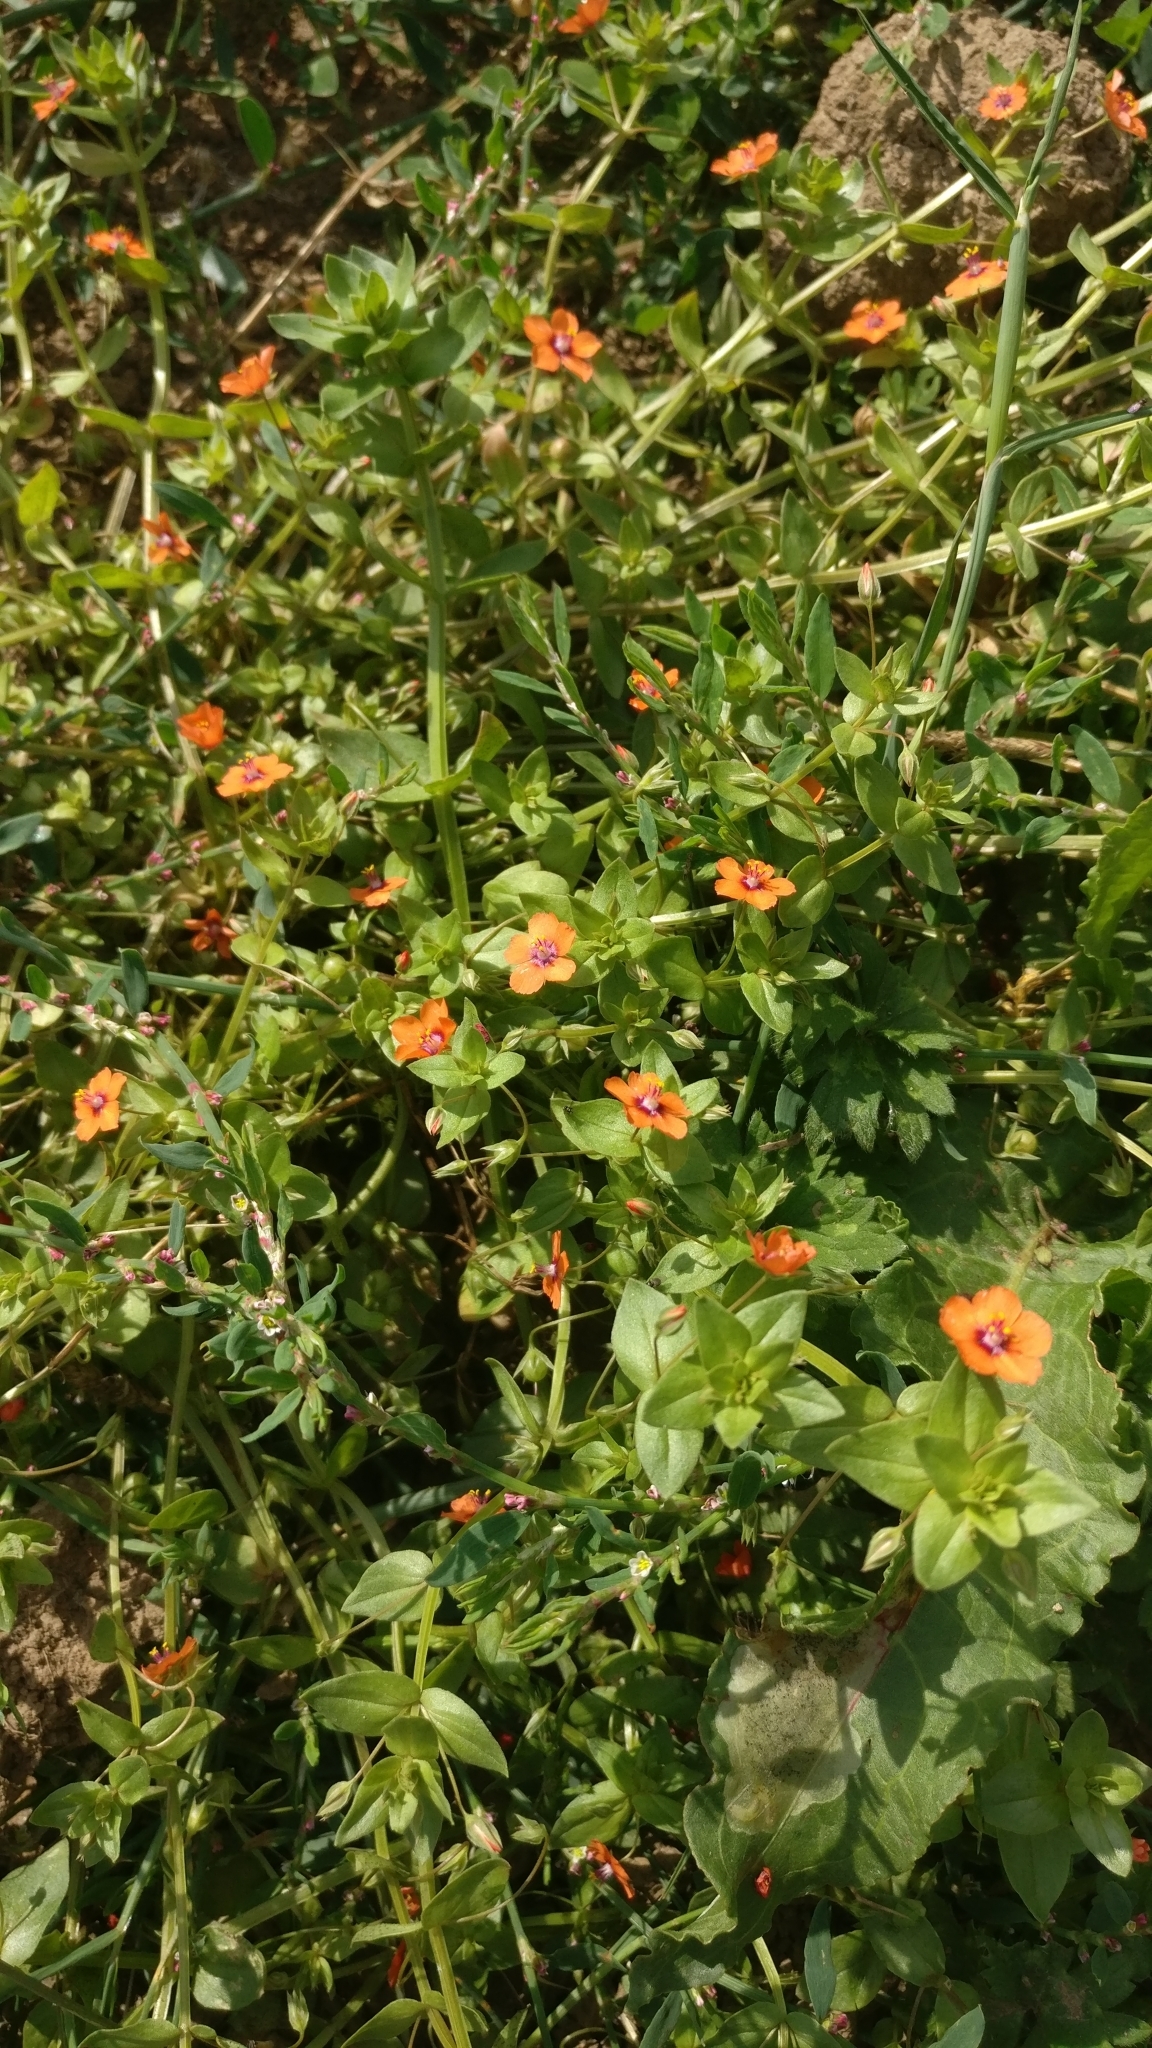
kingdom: Plantae
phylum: Tracheophyta
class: Magnoliopsida
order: Ericales
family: Primulaceae
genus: Lysimachia
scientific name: Lysimachia arvensis
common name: Scarlet pimpernel
